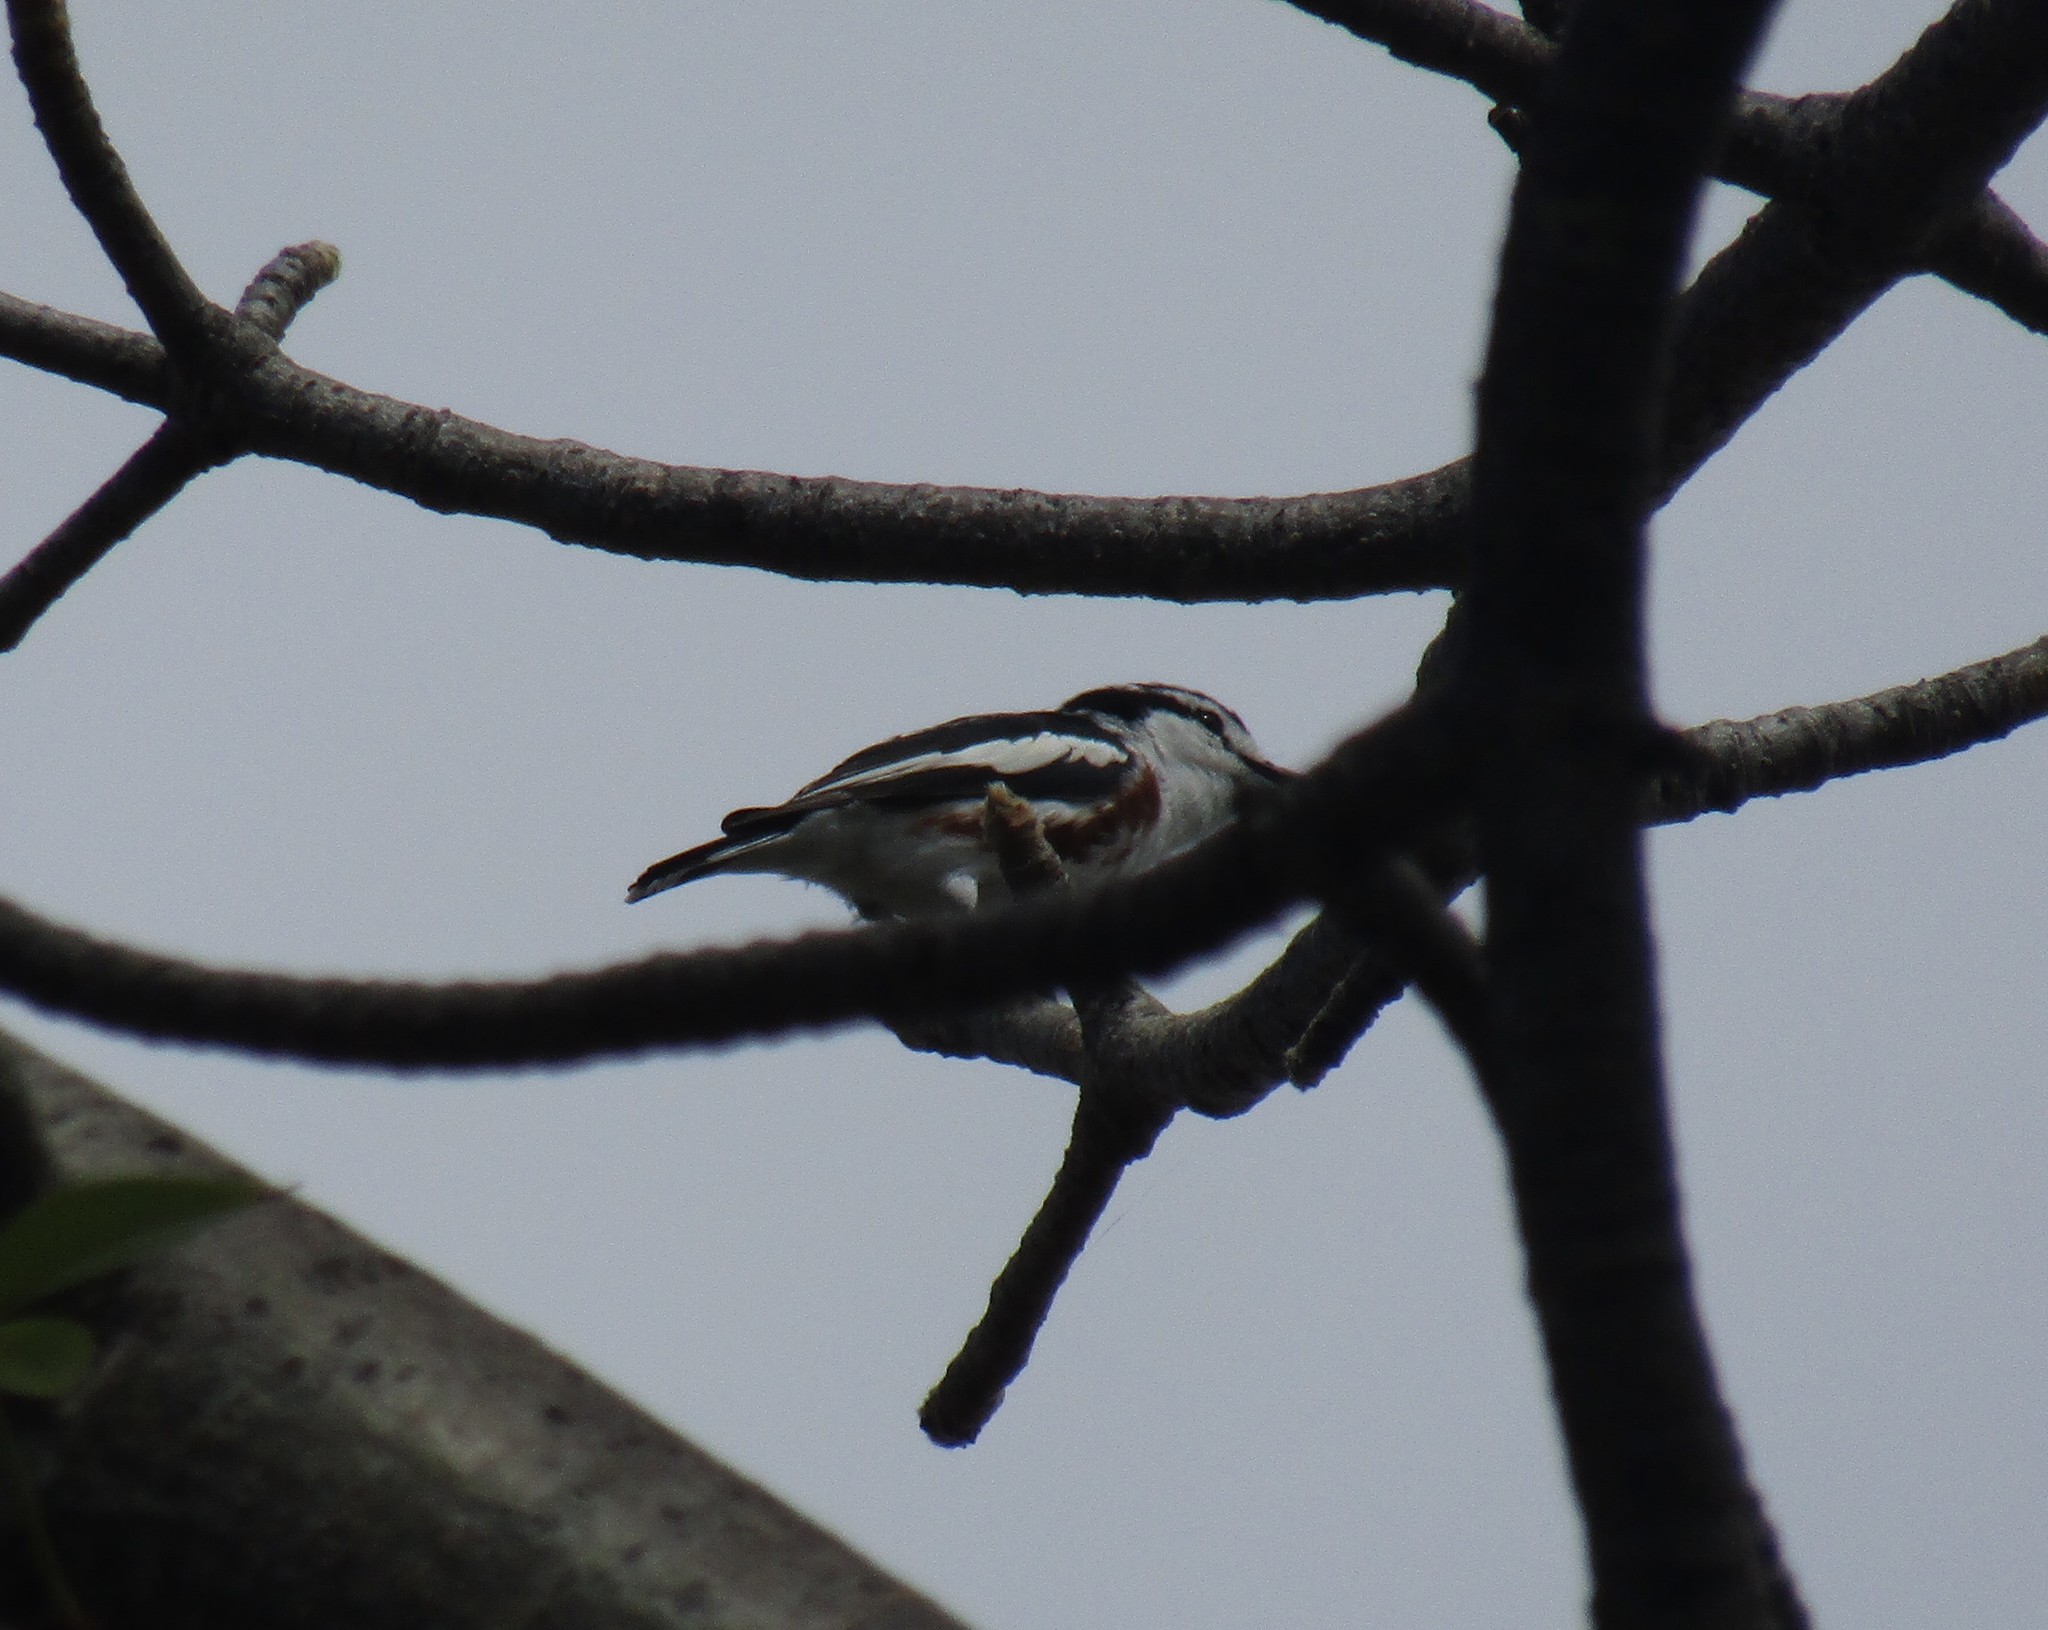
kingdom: Animalia
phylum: Chordata
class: Aves
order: Passeriformes
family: Malaconotidae
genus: Nilaus
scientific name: Nilaus afer
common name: Brubru
